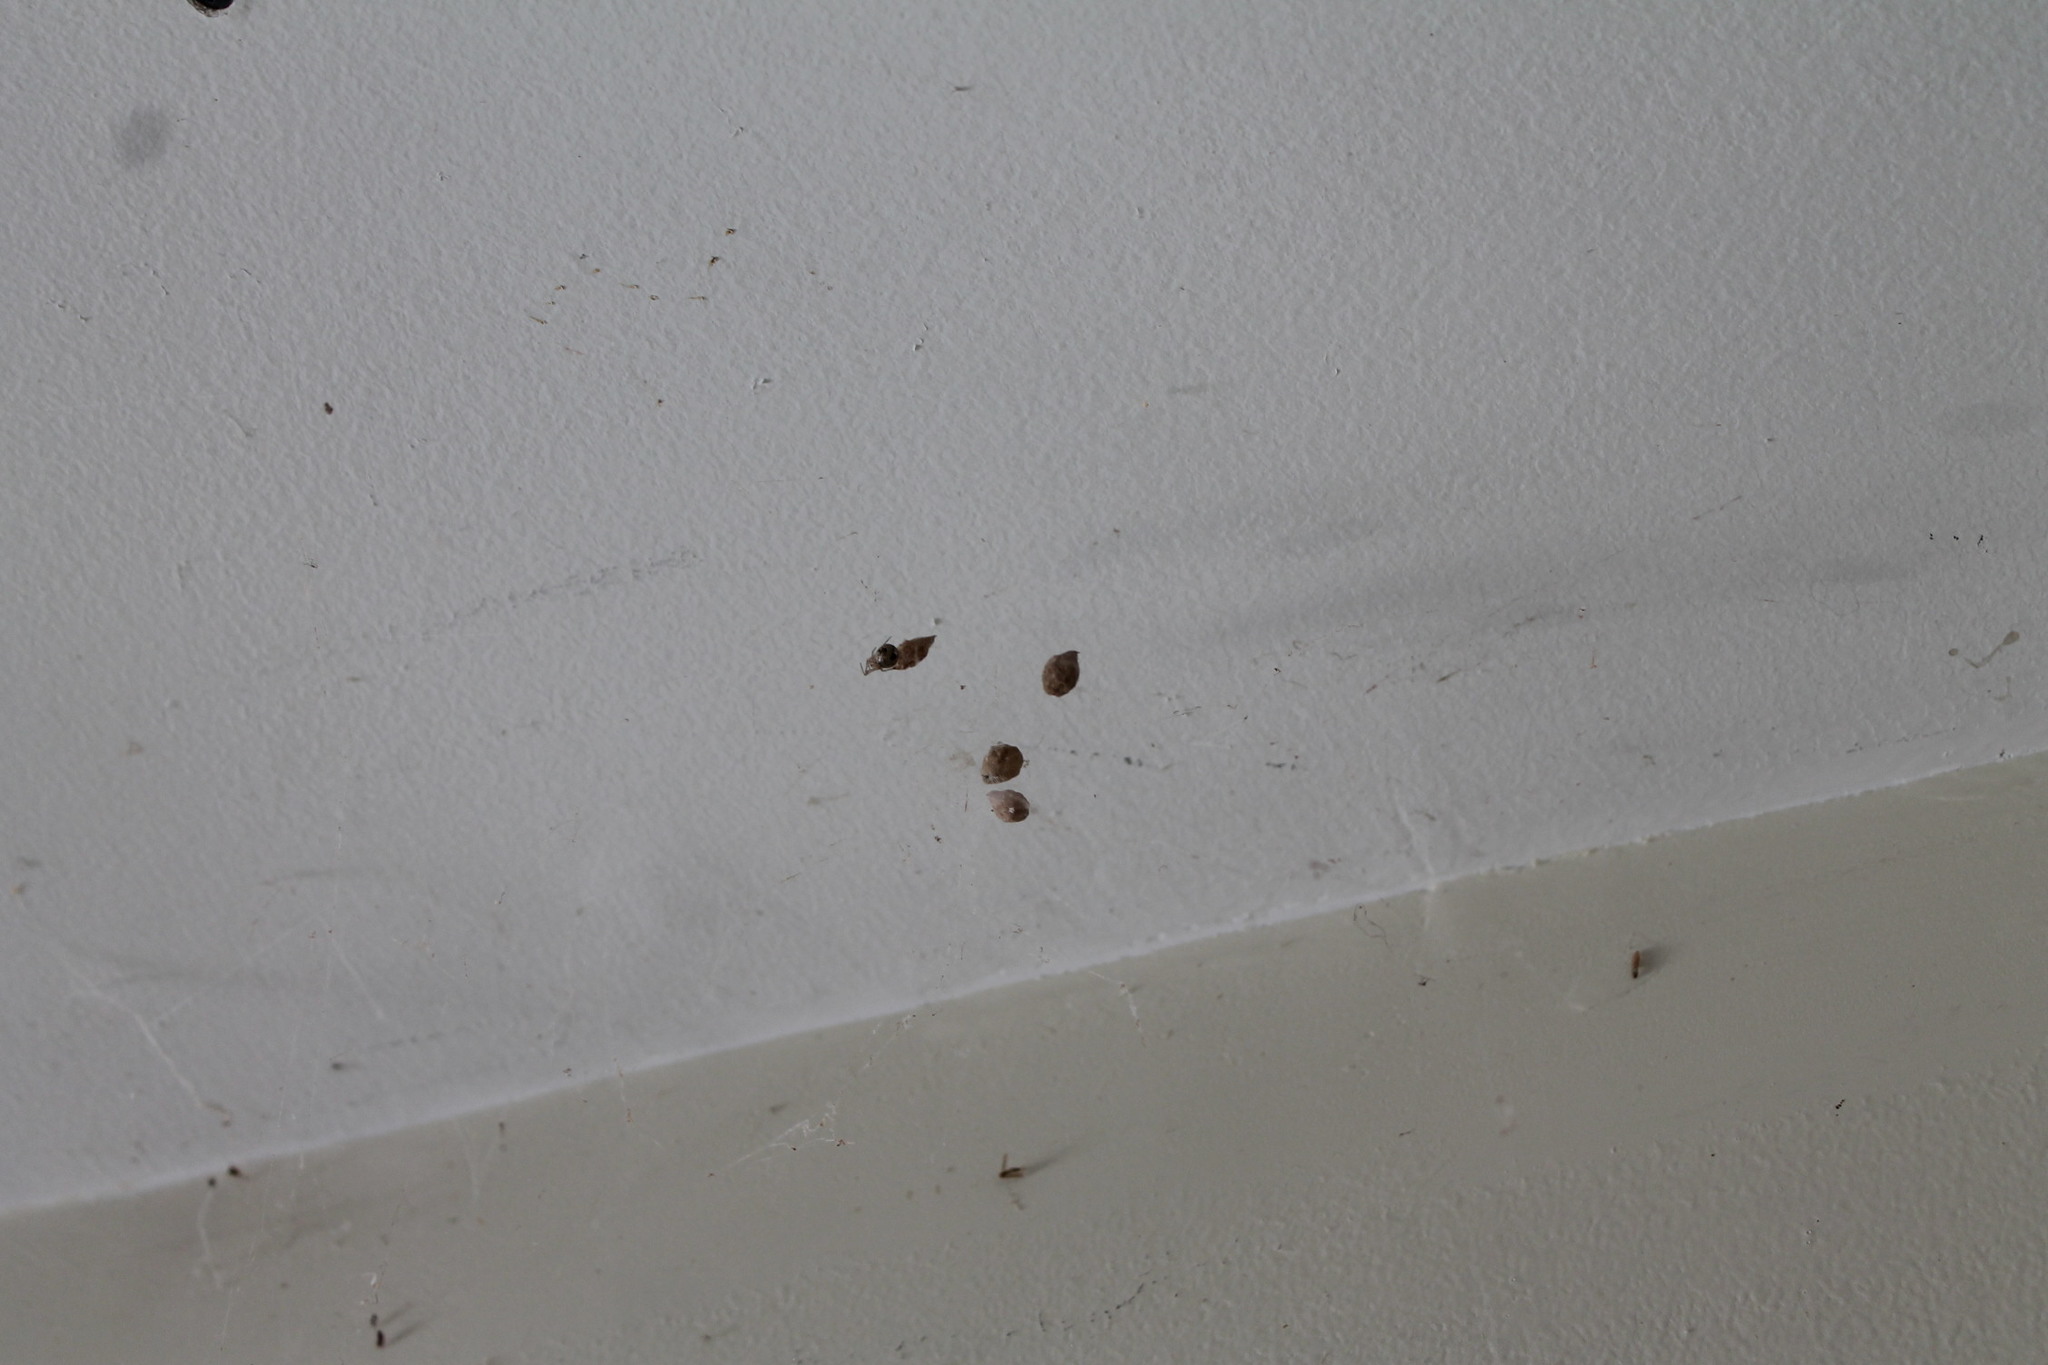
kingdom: Animalia
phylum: Arthropoda
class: Arachnida
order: Araneae
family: Theridiidae
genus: Parasteatoda
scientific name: Parasteatoda tepidariorum
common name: Common house spider
